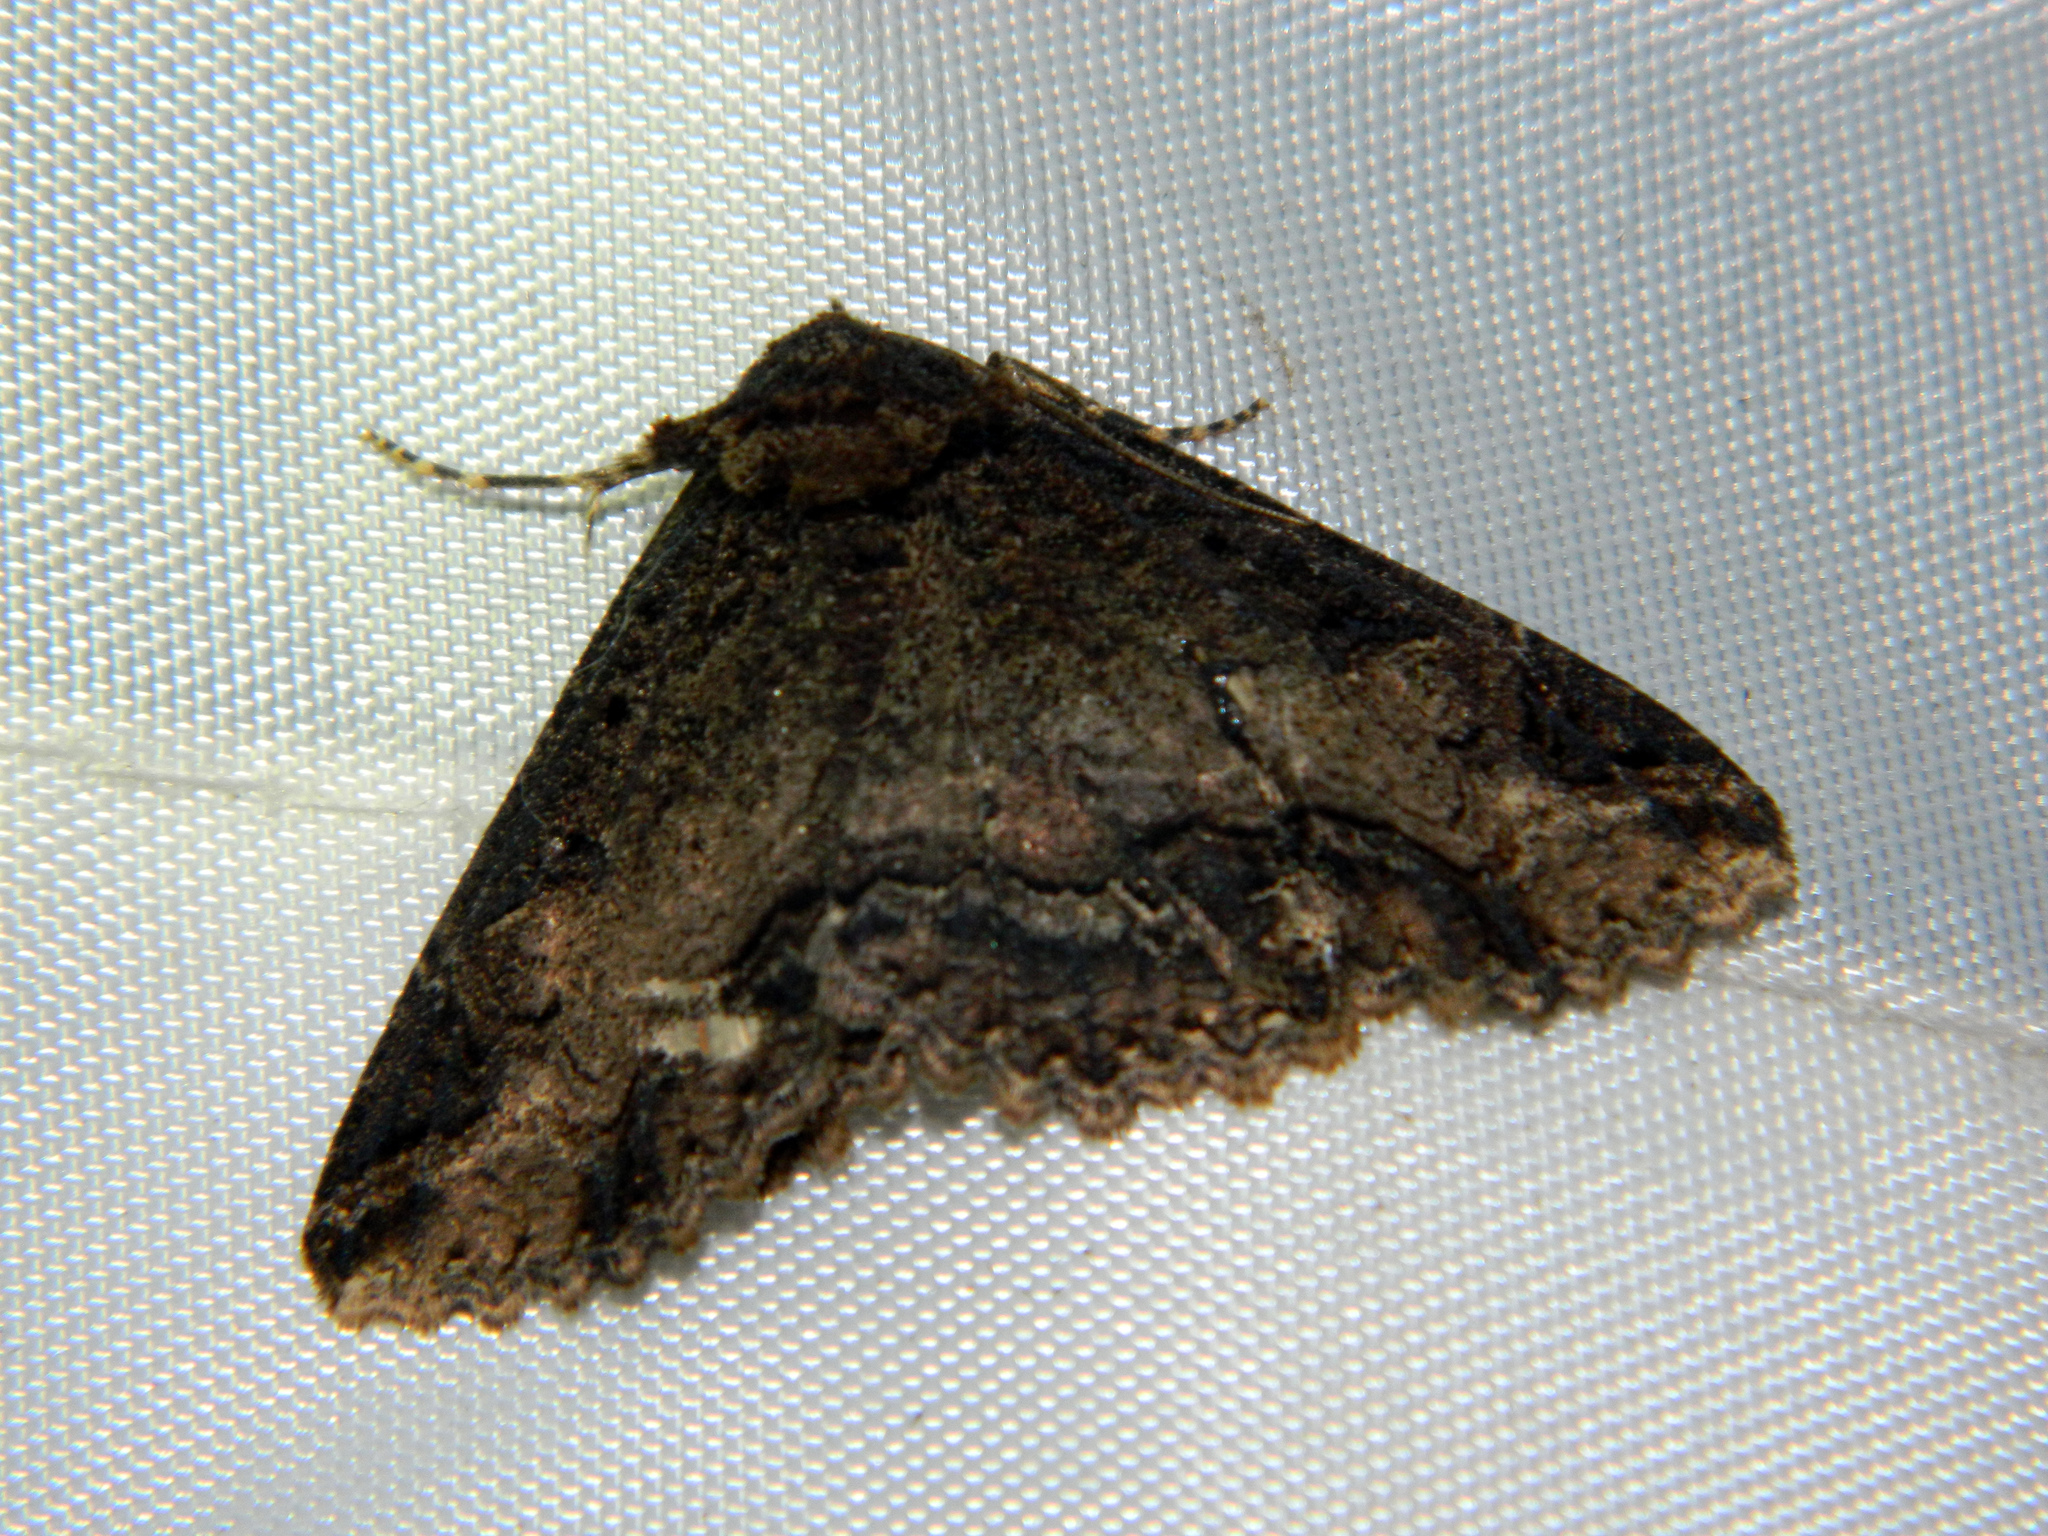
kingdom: Animalia
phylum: Arthropoda
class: Insecta
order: Lepidoptera
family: Erebidae
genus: Zale
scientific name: Zale minerea
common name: Colorful zale moth
